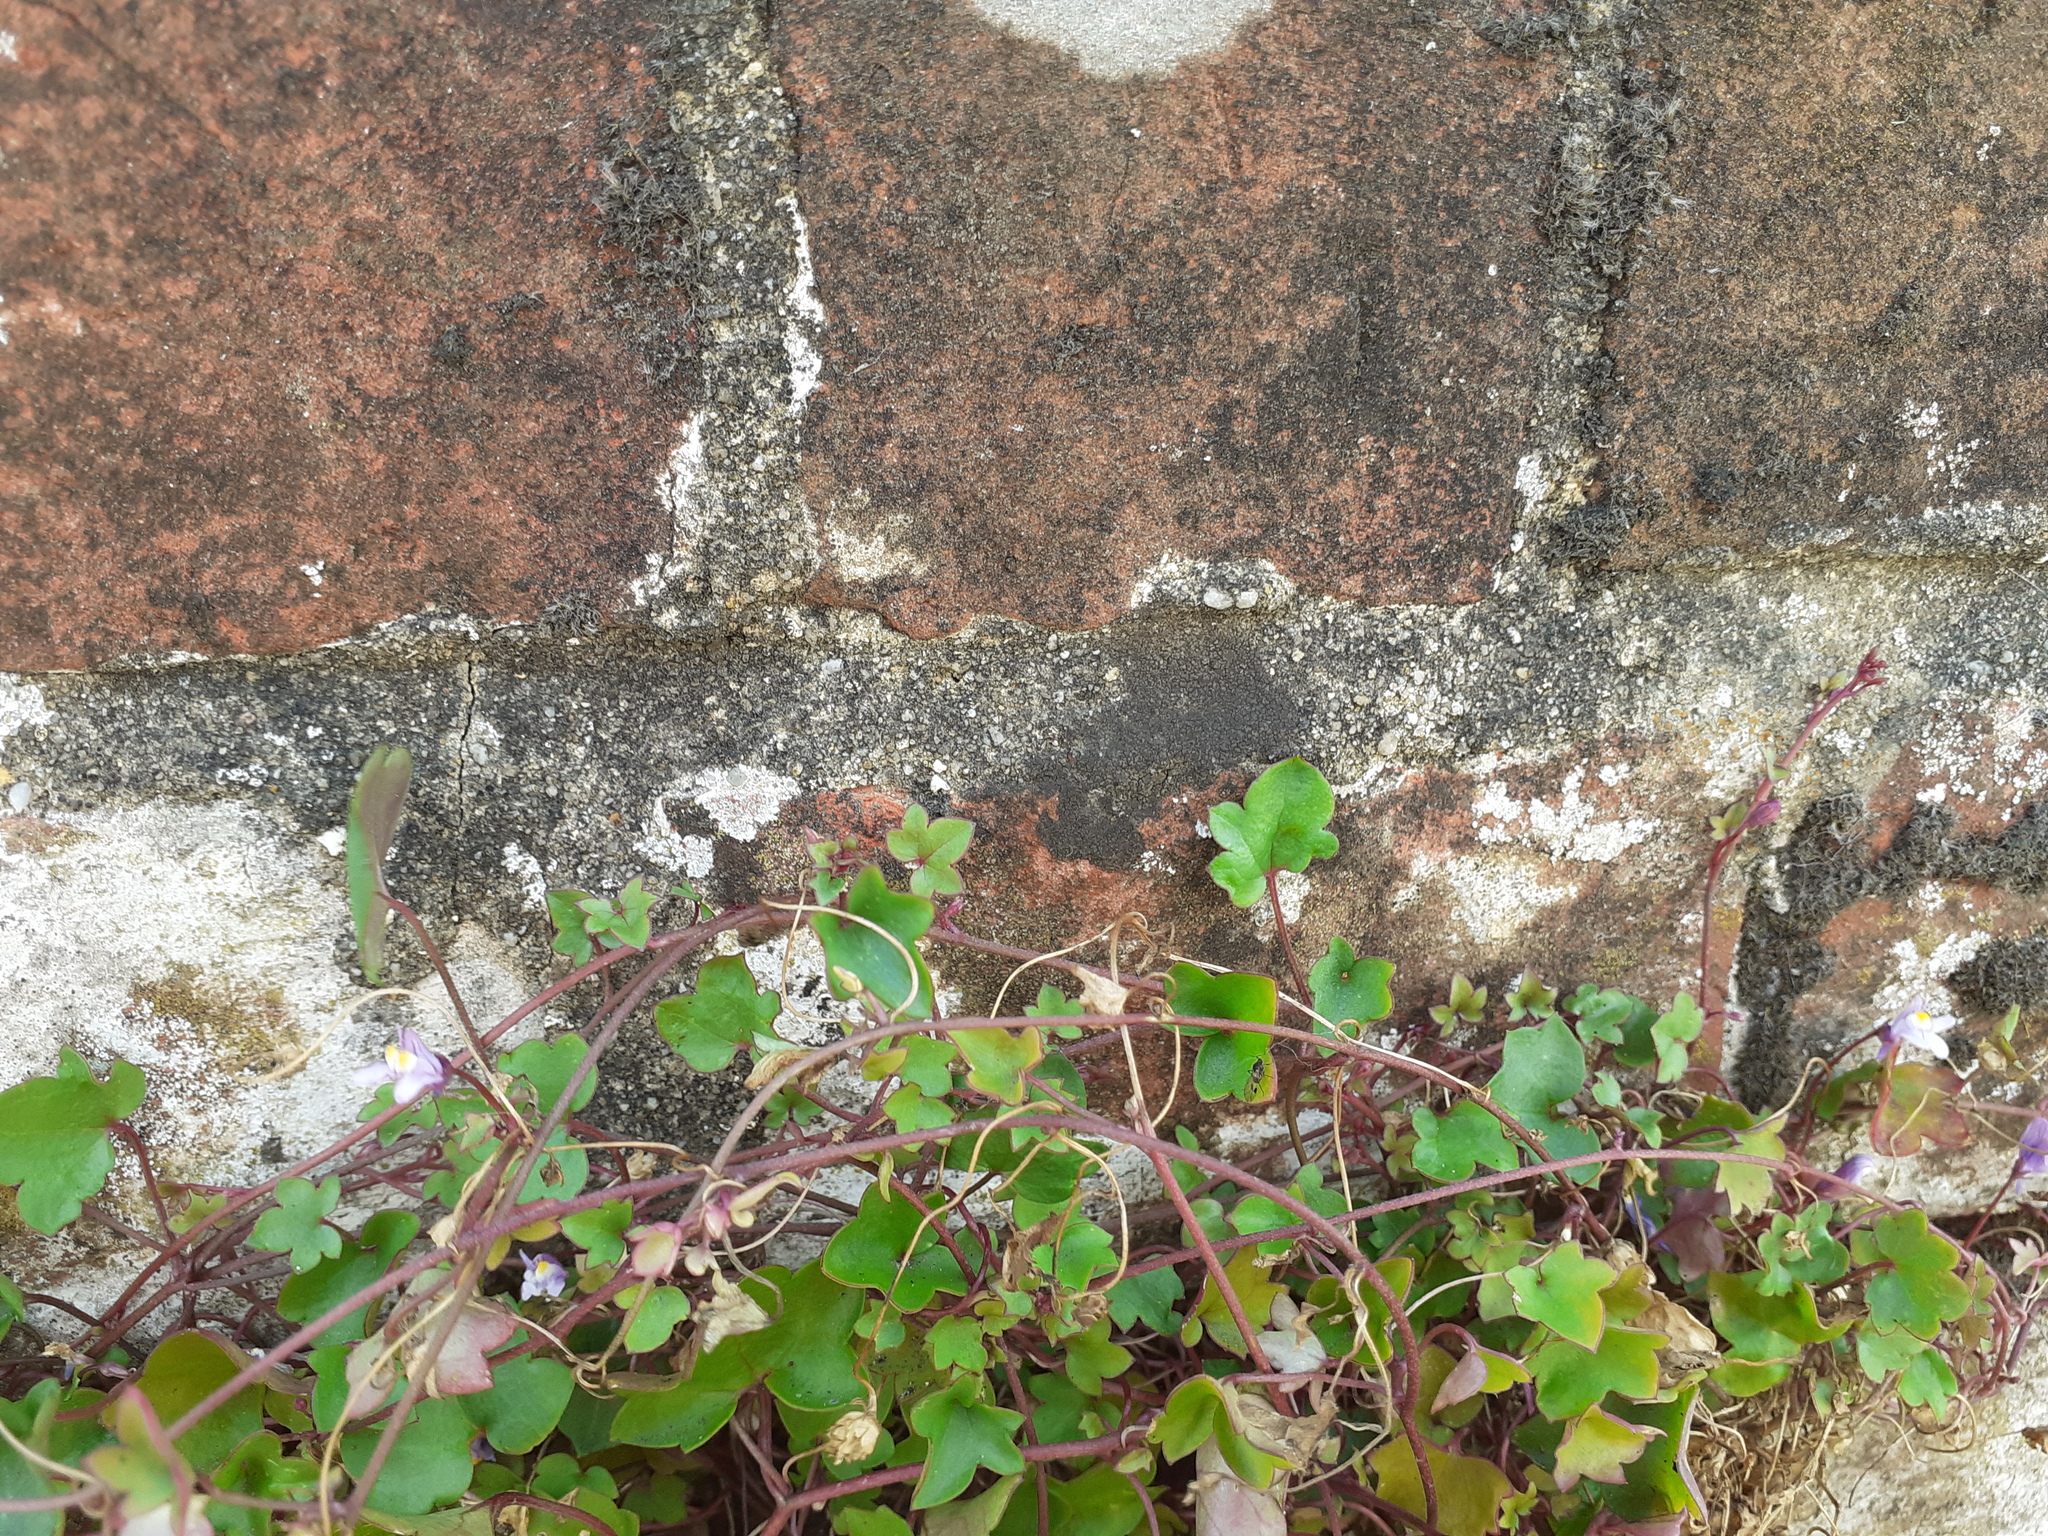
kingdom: Plantae
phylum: Tracheophyta
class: Magnoliopsida
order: Lamiales
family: Plantaginaceae
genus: Cymbalaria
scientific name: Cymbalaria muralis
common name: Ivy-leaved toadflax
